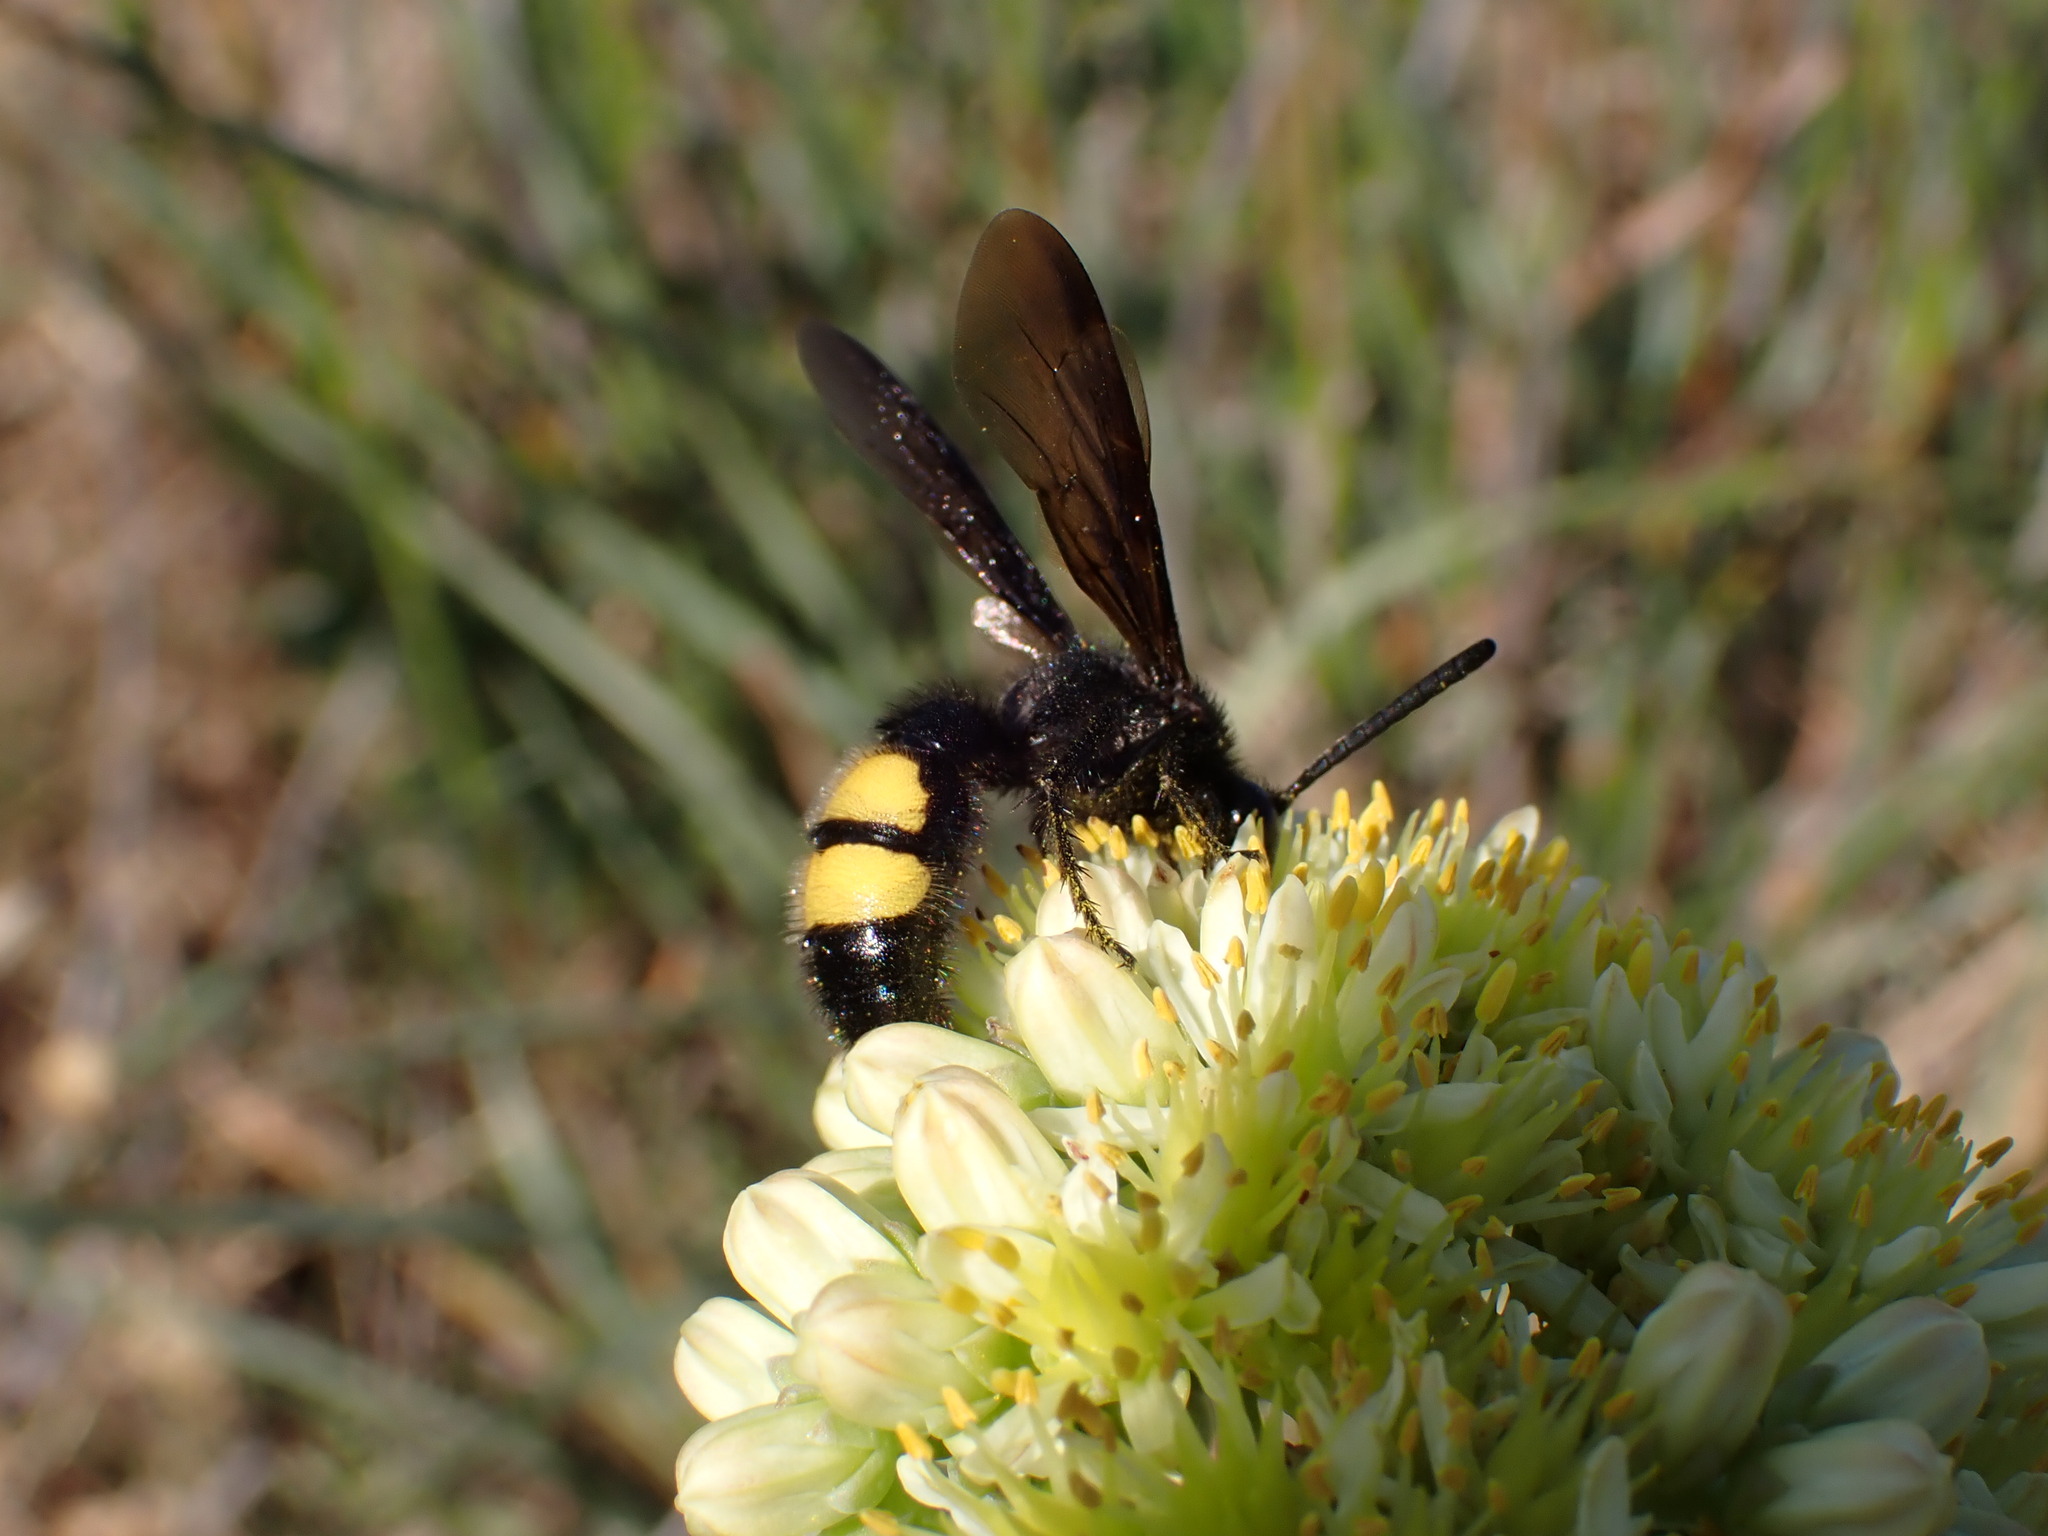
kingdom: Animalia
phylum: Arthropoda
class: Insecta
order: Hymenoptera
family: Scoliidae
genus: Scolia
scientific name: Scolia hirta
